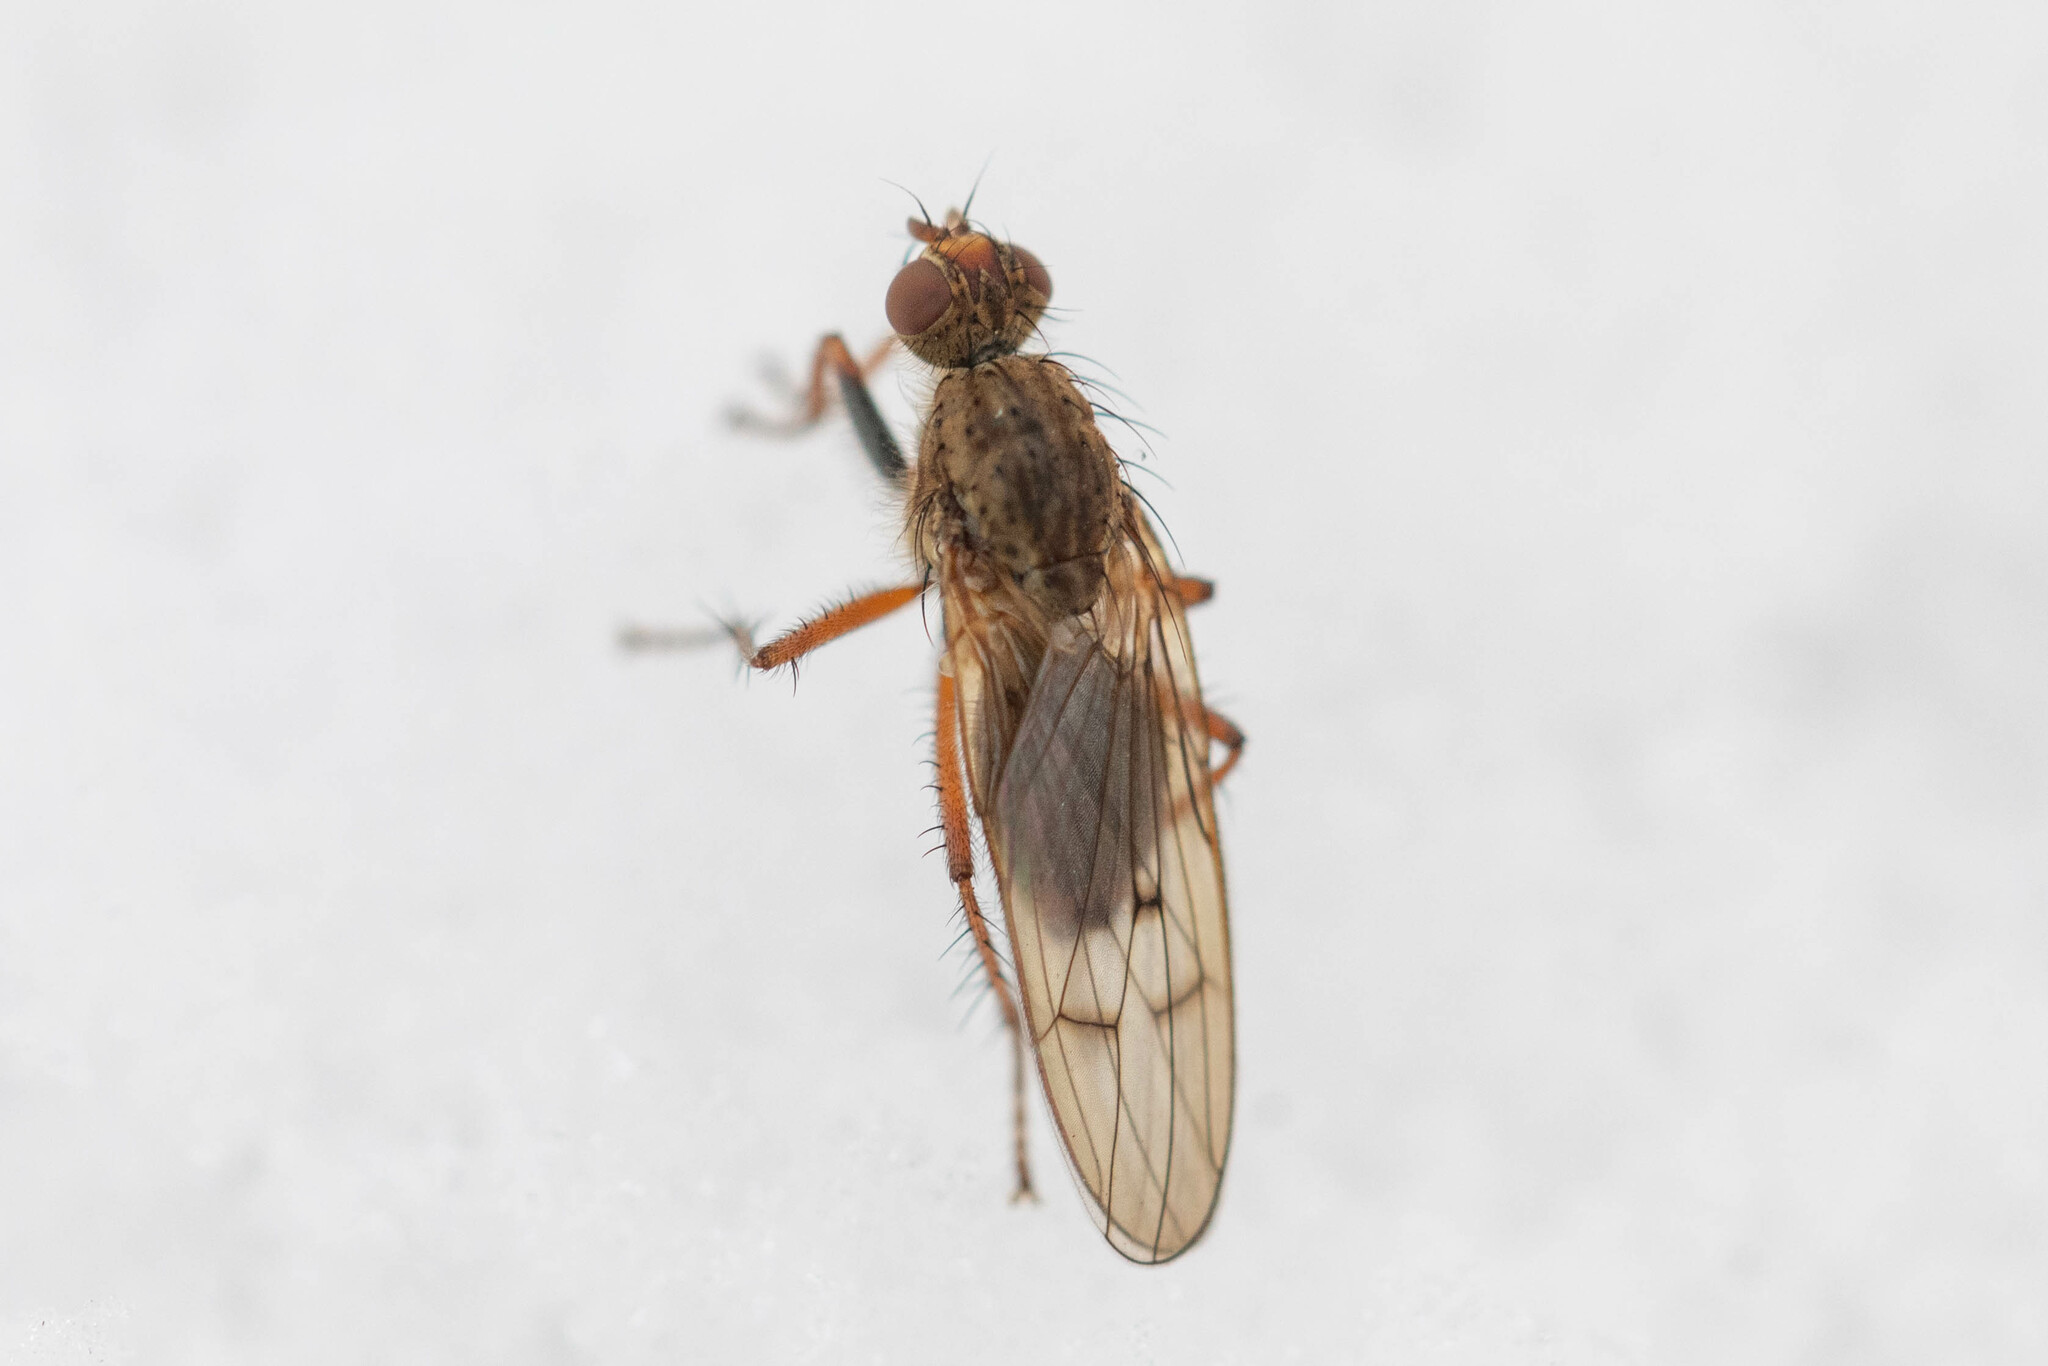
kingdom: Animalia
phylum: Arthropoda
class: Insecta
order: Diptera
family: Scathophagidae
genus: Scathophaga
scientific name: Scathophaga furcata
